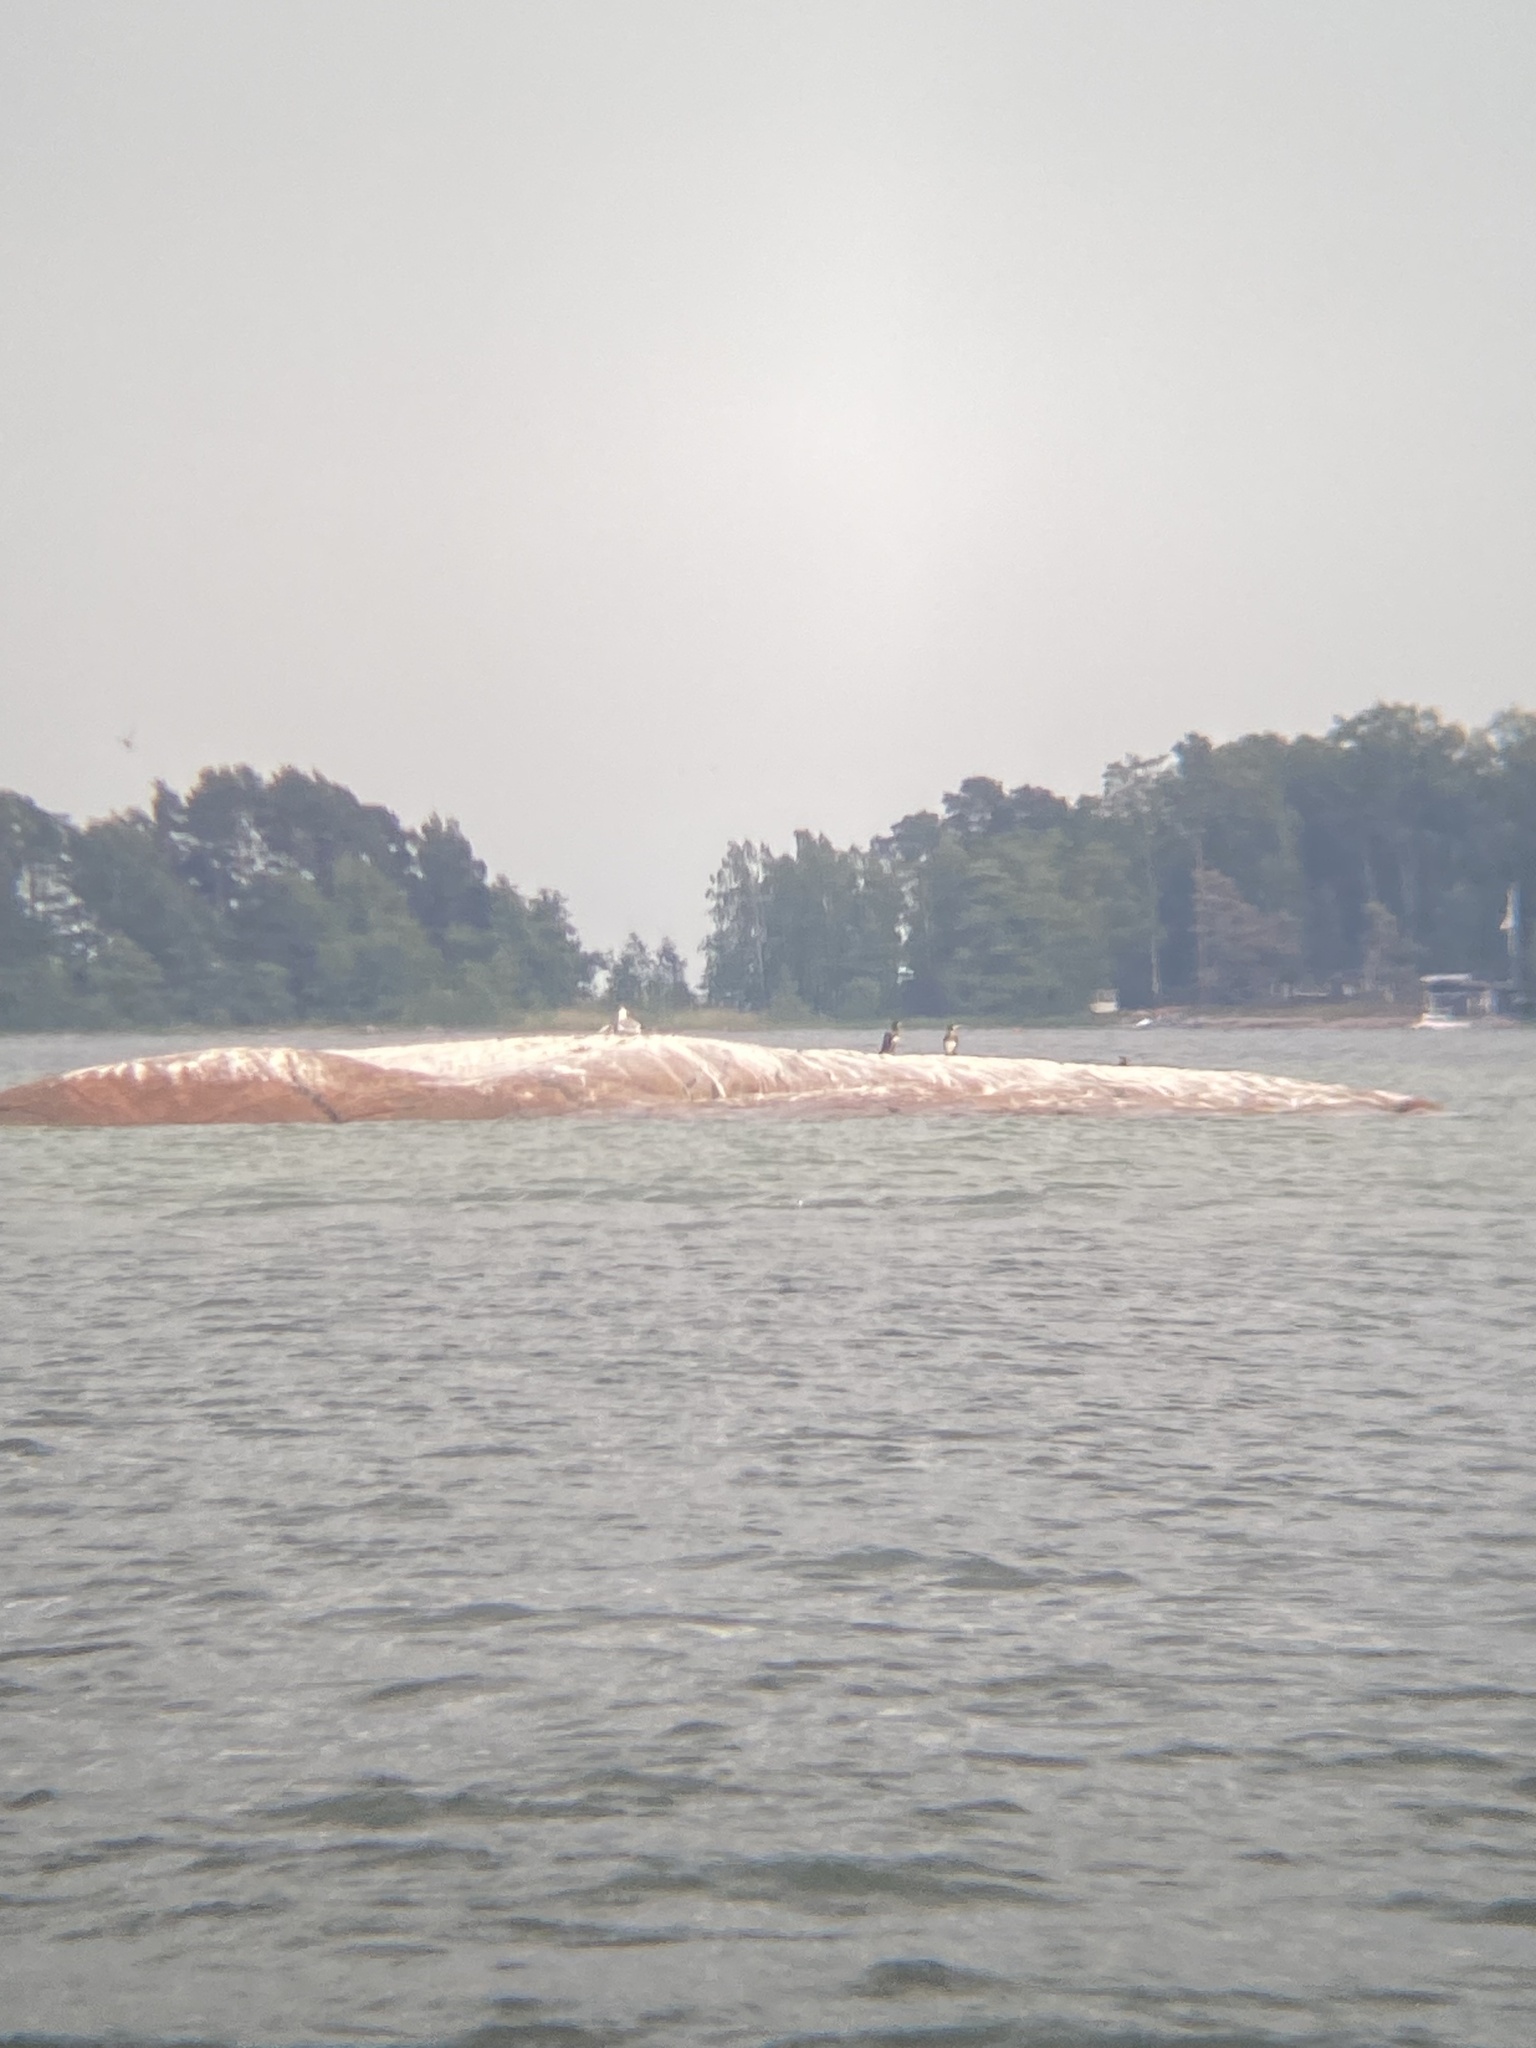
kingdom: Animalia
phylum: Chordata
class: Aves
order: Suliformes
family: Phalacrocoracidae
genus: Phalacrocorax
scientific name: Phalacrocorax carbo
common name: Great cormorant
